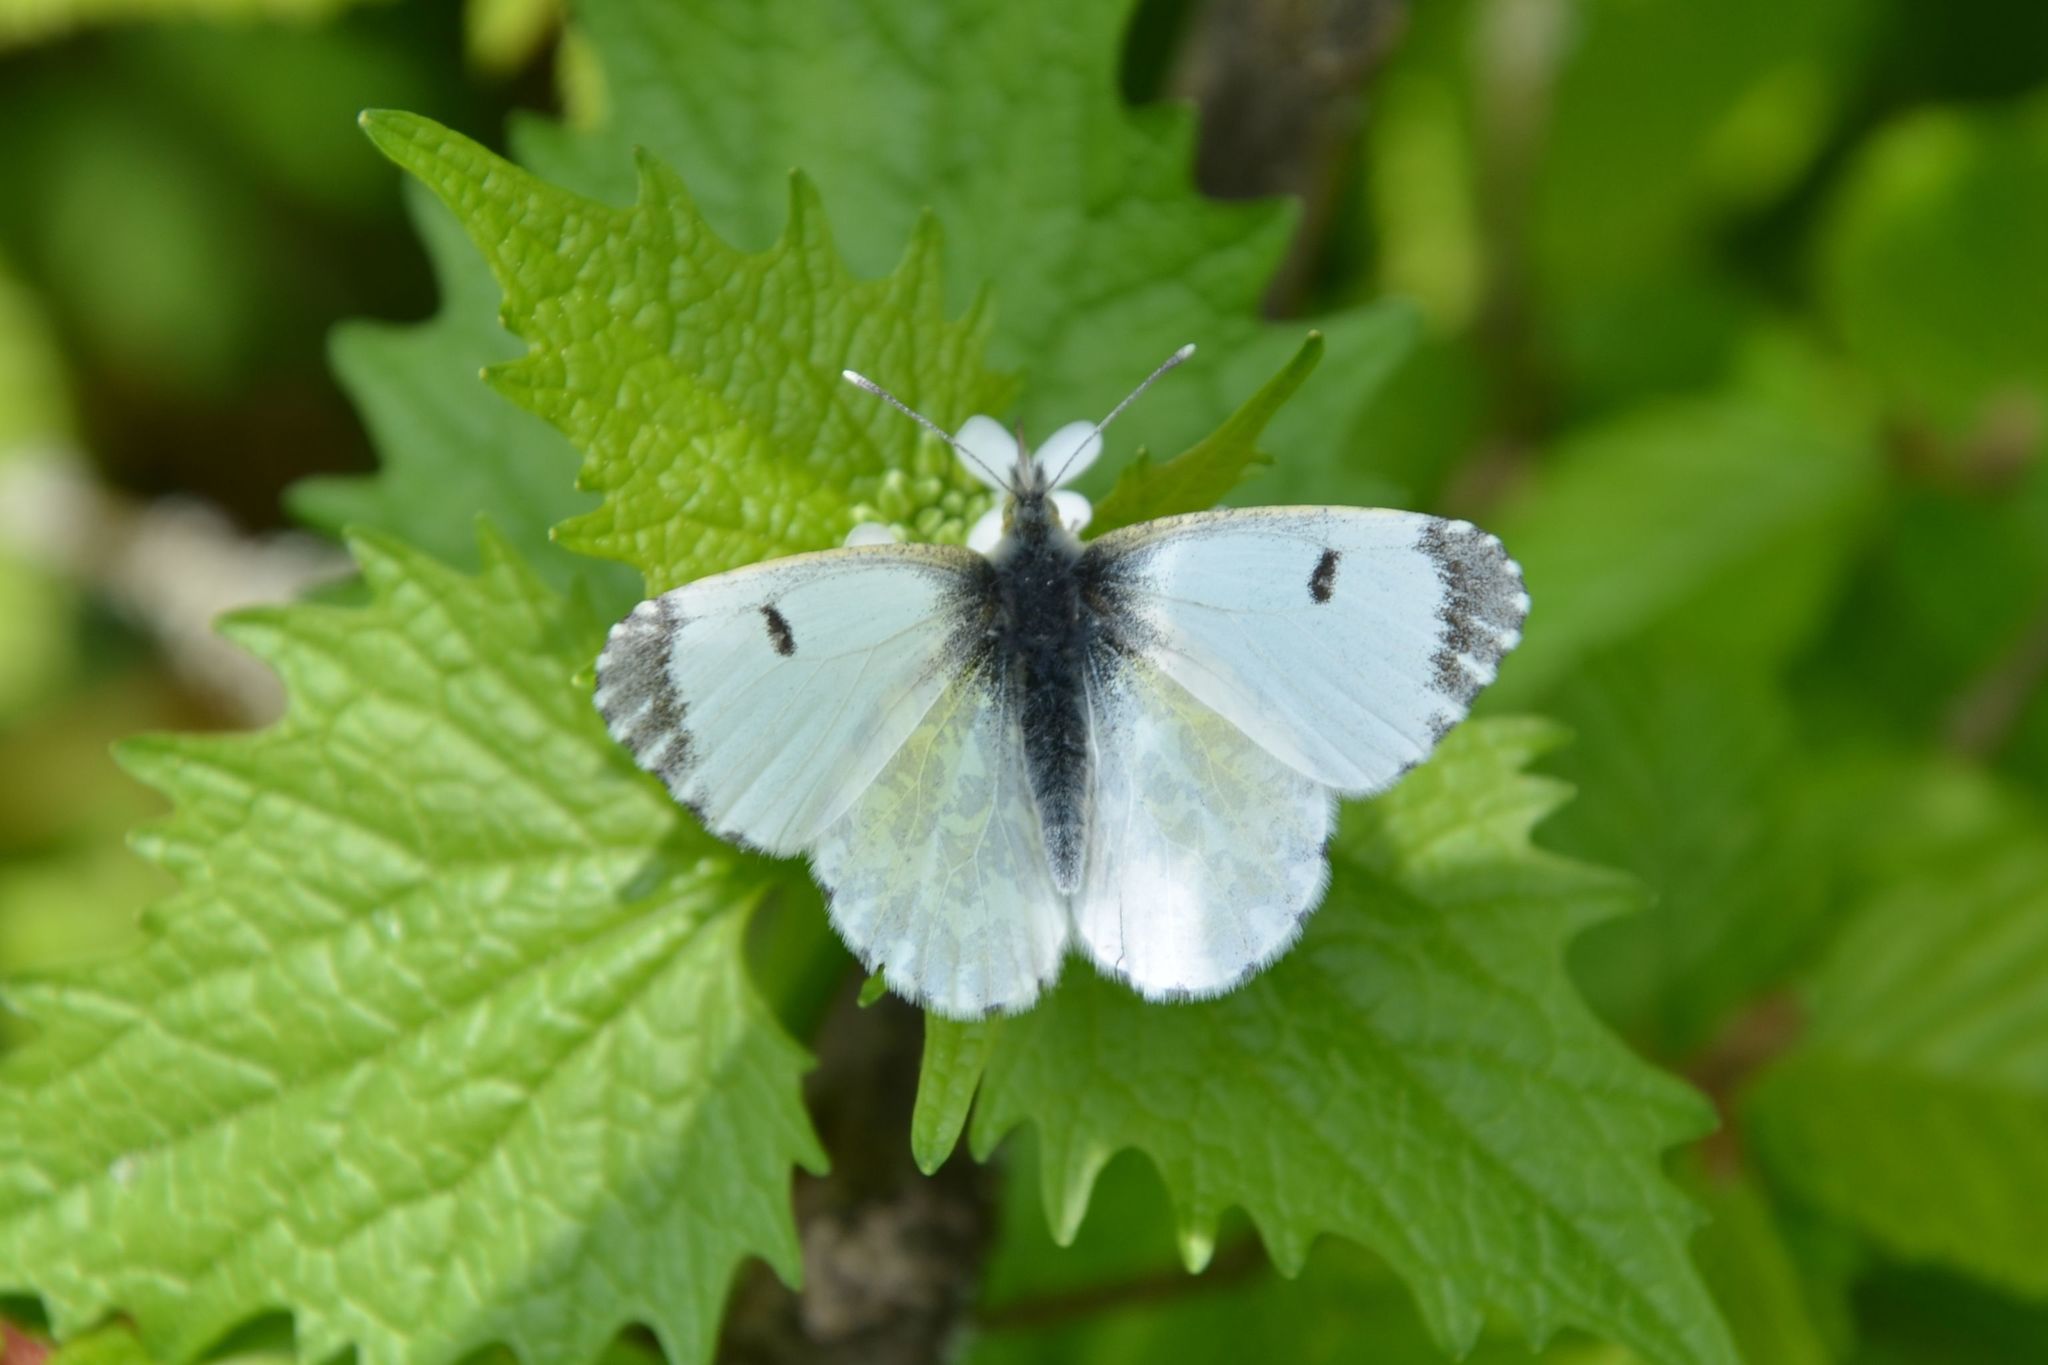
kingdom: Animalia
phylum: Arthropoda
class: Insecta
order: Lepidoptera
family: Pieridae
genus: Anthocharis
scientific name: Anthocharis cardamines
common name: Orange-tip
